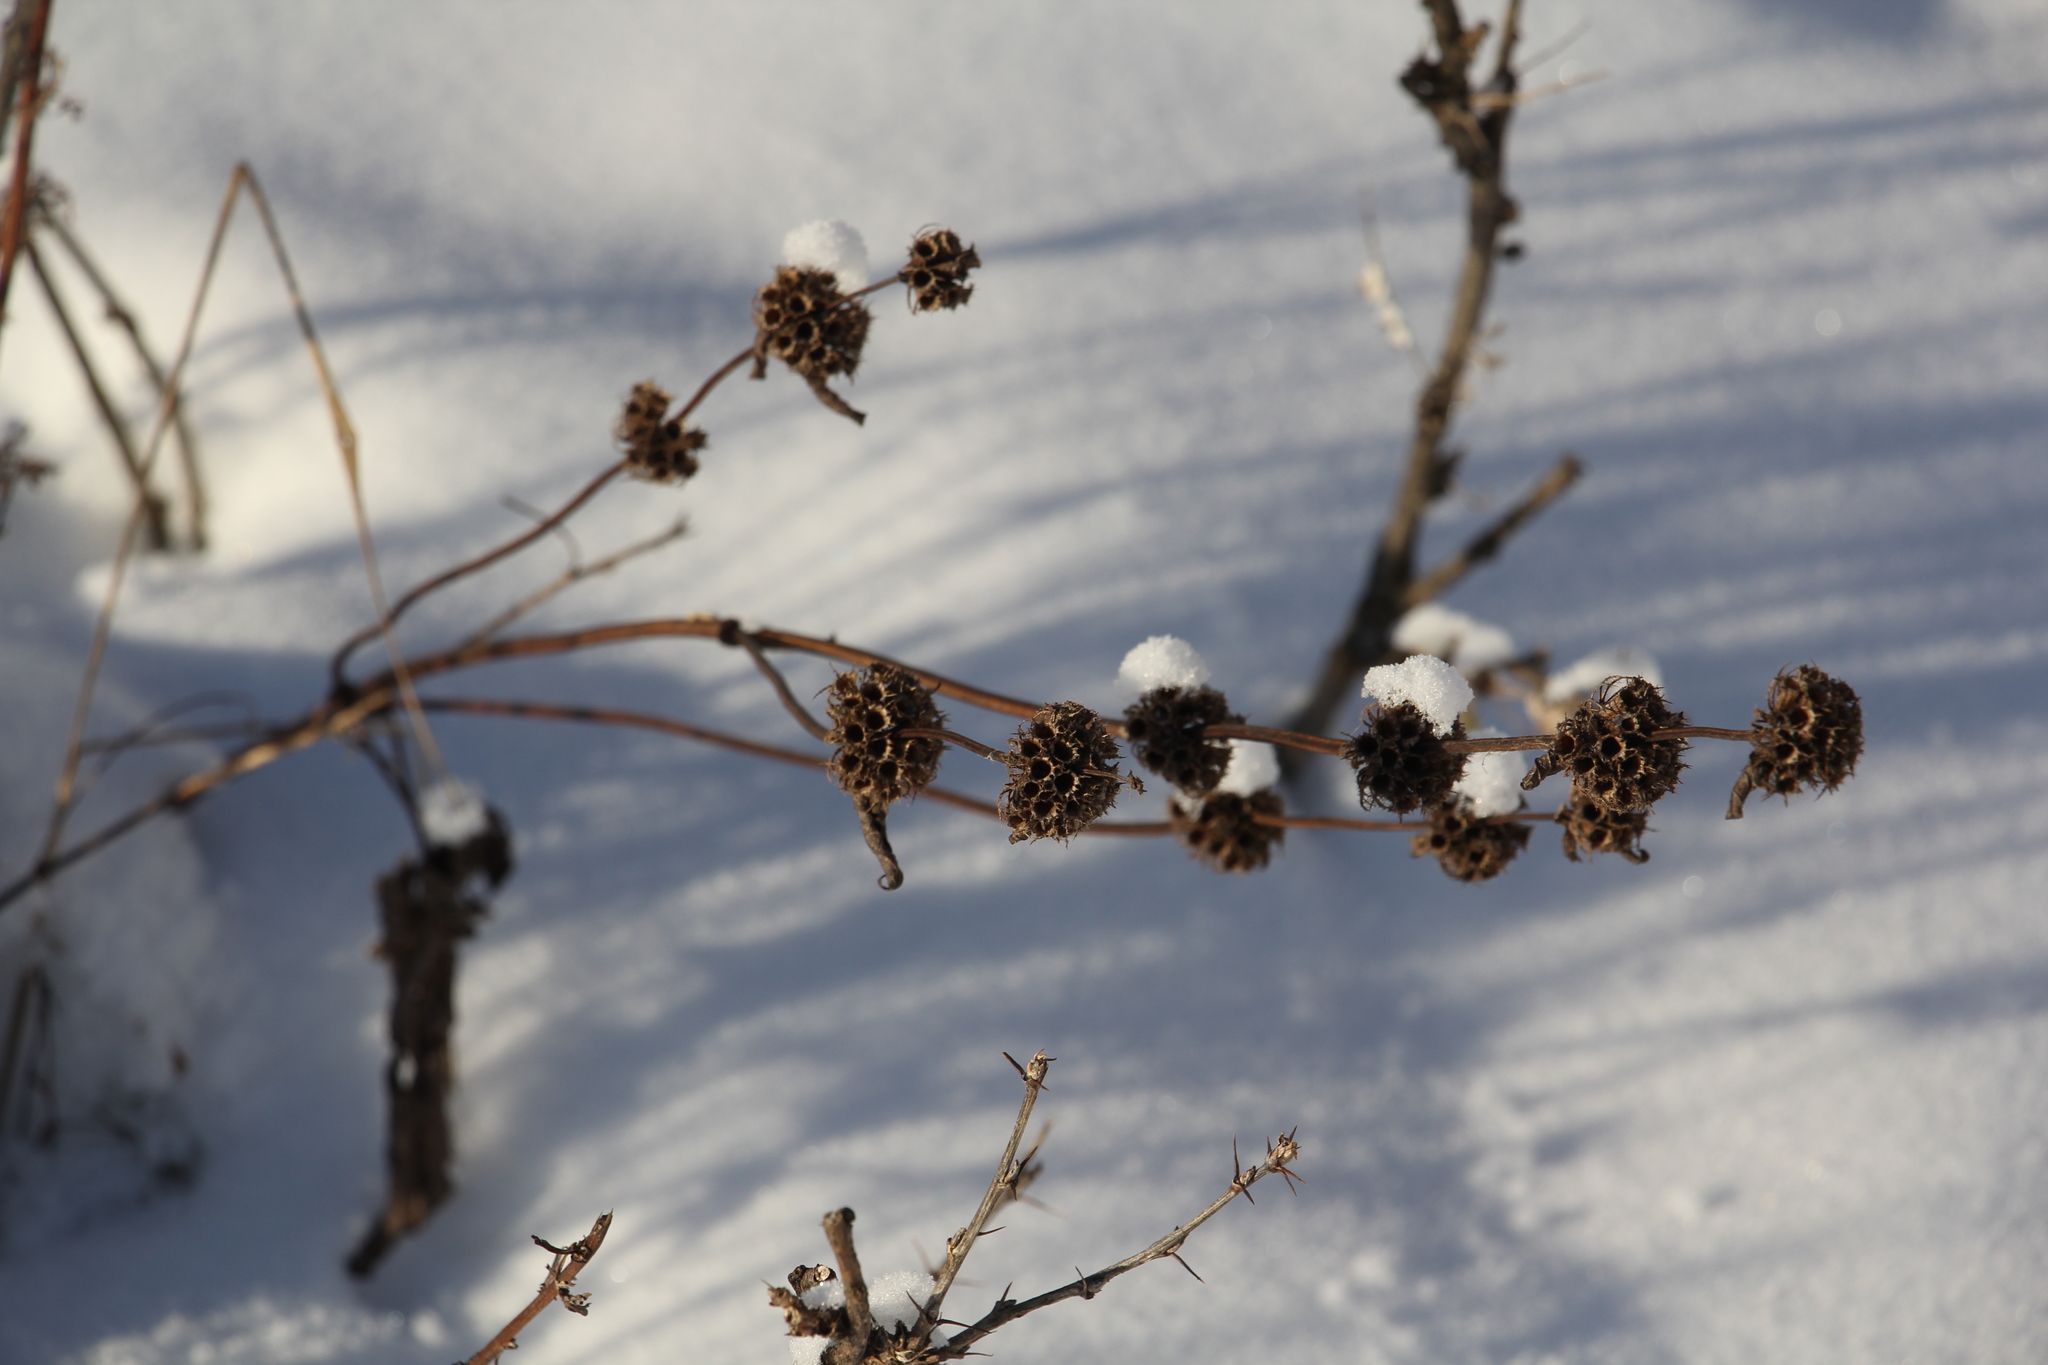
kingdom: Plantae
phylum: Tracheophyta
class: Magnoliopsida
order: Lamiales
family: Lamiaceae
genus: Phlomoides
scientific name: Phlomoides tuberosa
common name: Tuberous jerusalem sage
